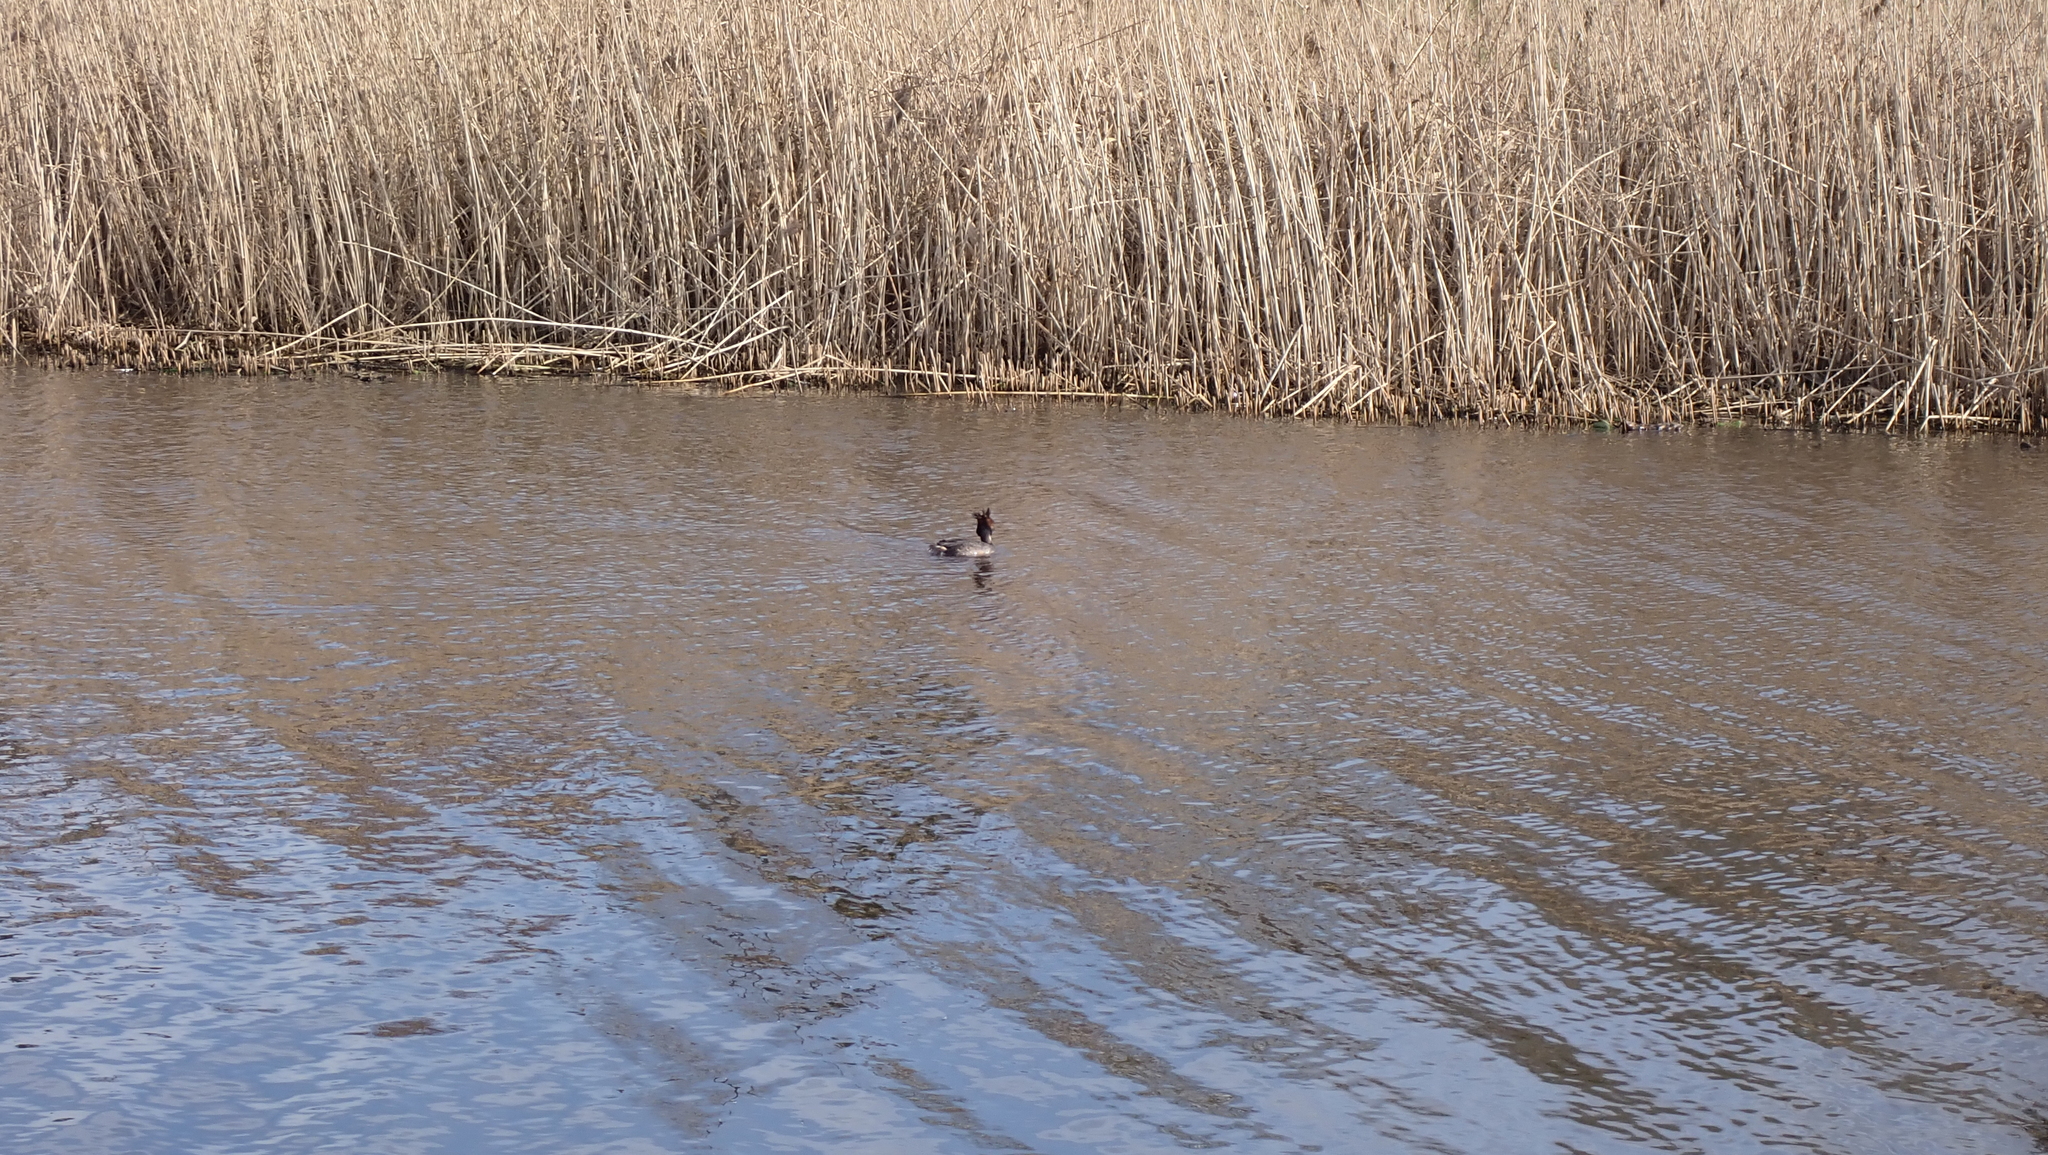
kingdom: Animalia
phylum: Chordata
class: Aves
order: Podicipediformes
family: Podicipedidae
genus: Podiceps
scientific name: Podiceps cristatus
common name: Great crested grebe
